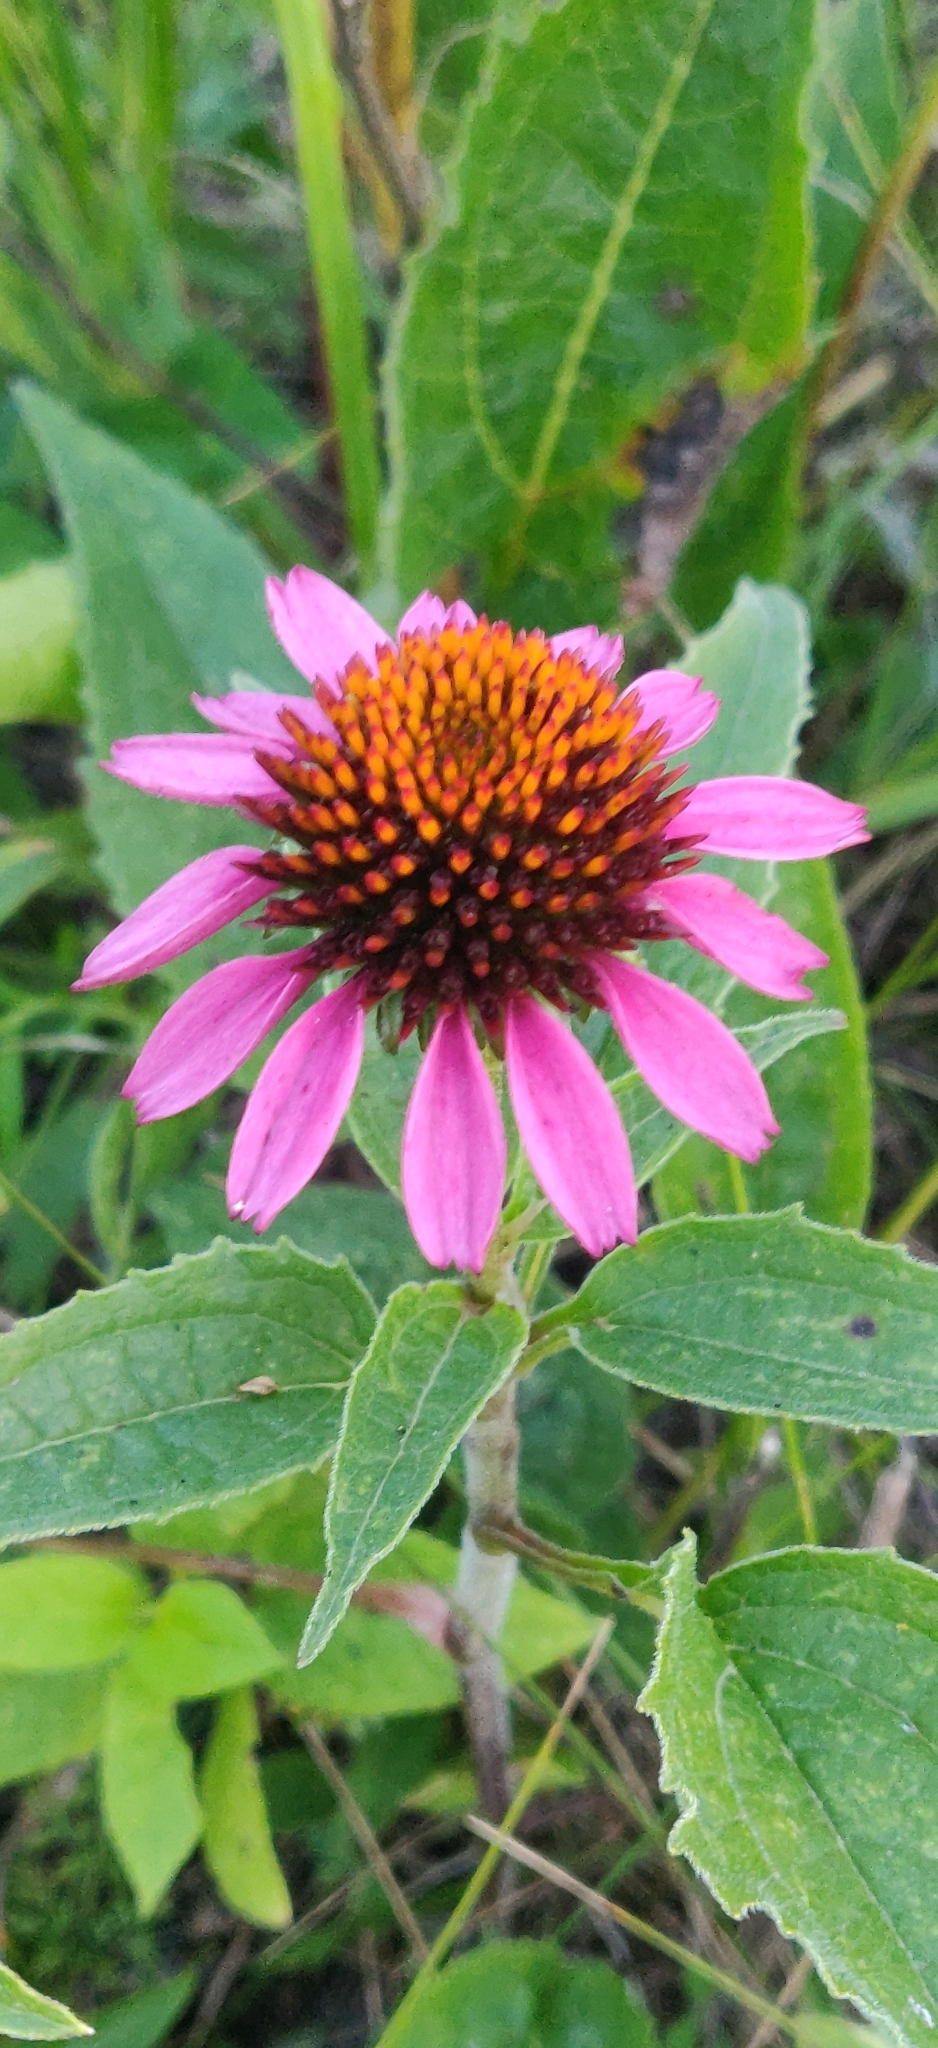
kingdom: Plantae
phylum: Tracheophyta
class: Magnoliopsida
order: Asterales
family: Asteraceae
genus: Echinacea
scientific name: Echinacea purpurea
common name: Broad-leaved purple coneflower
